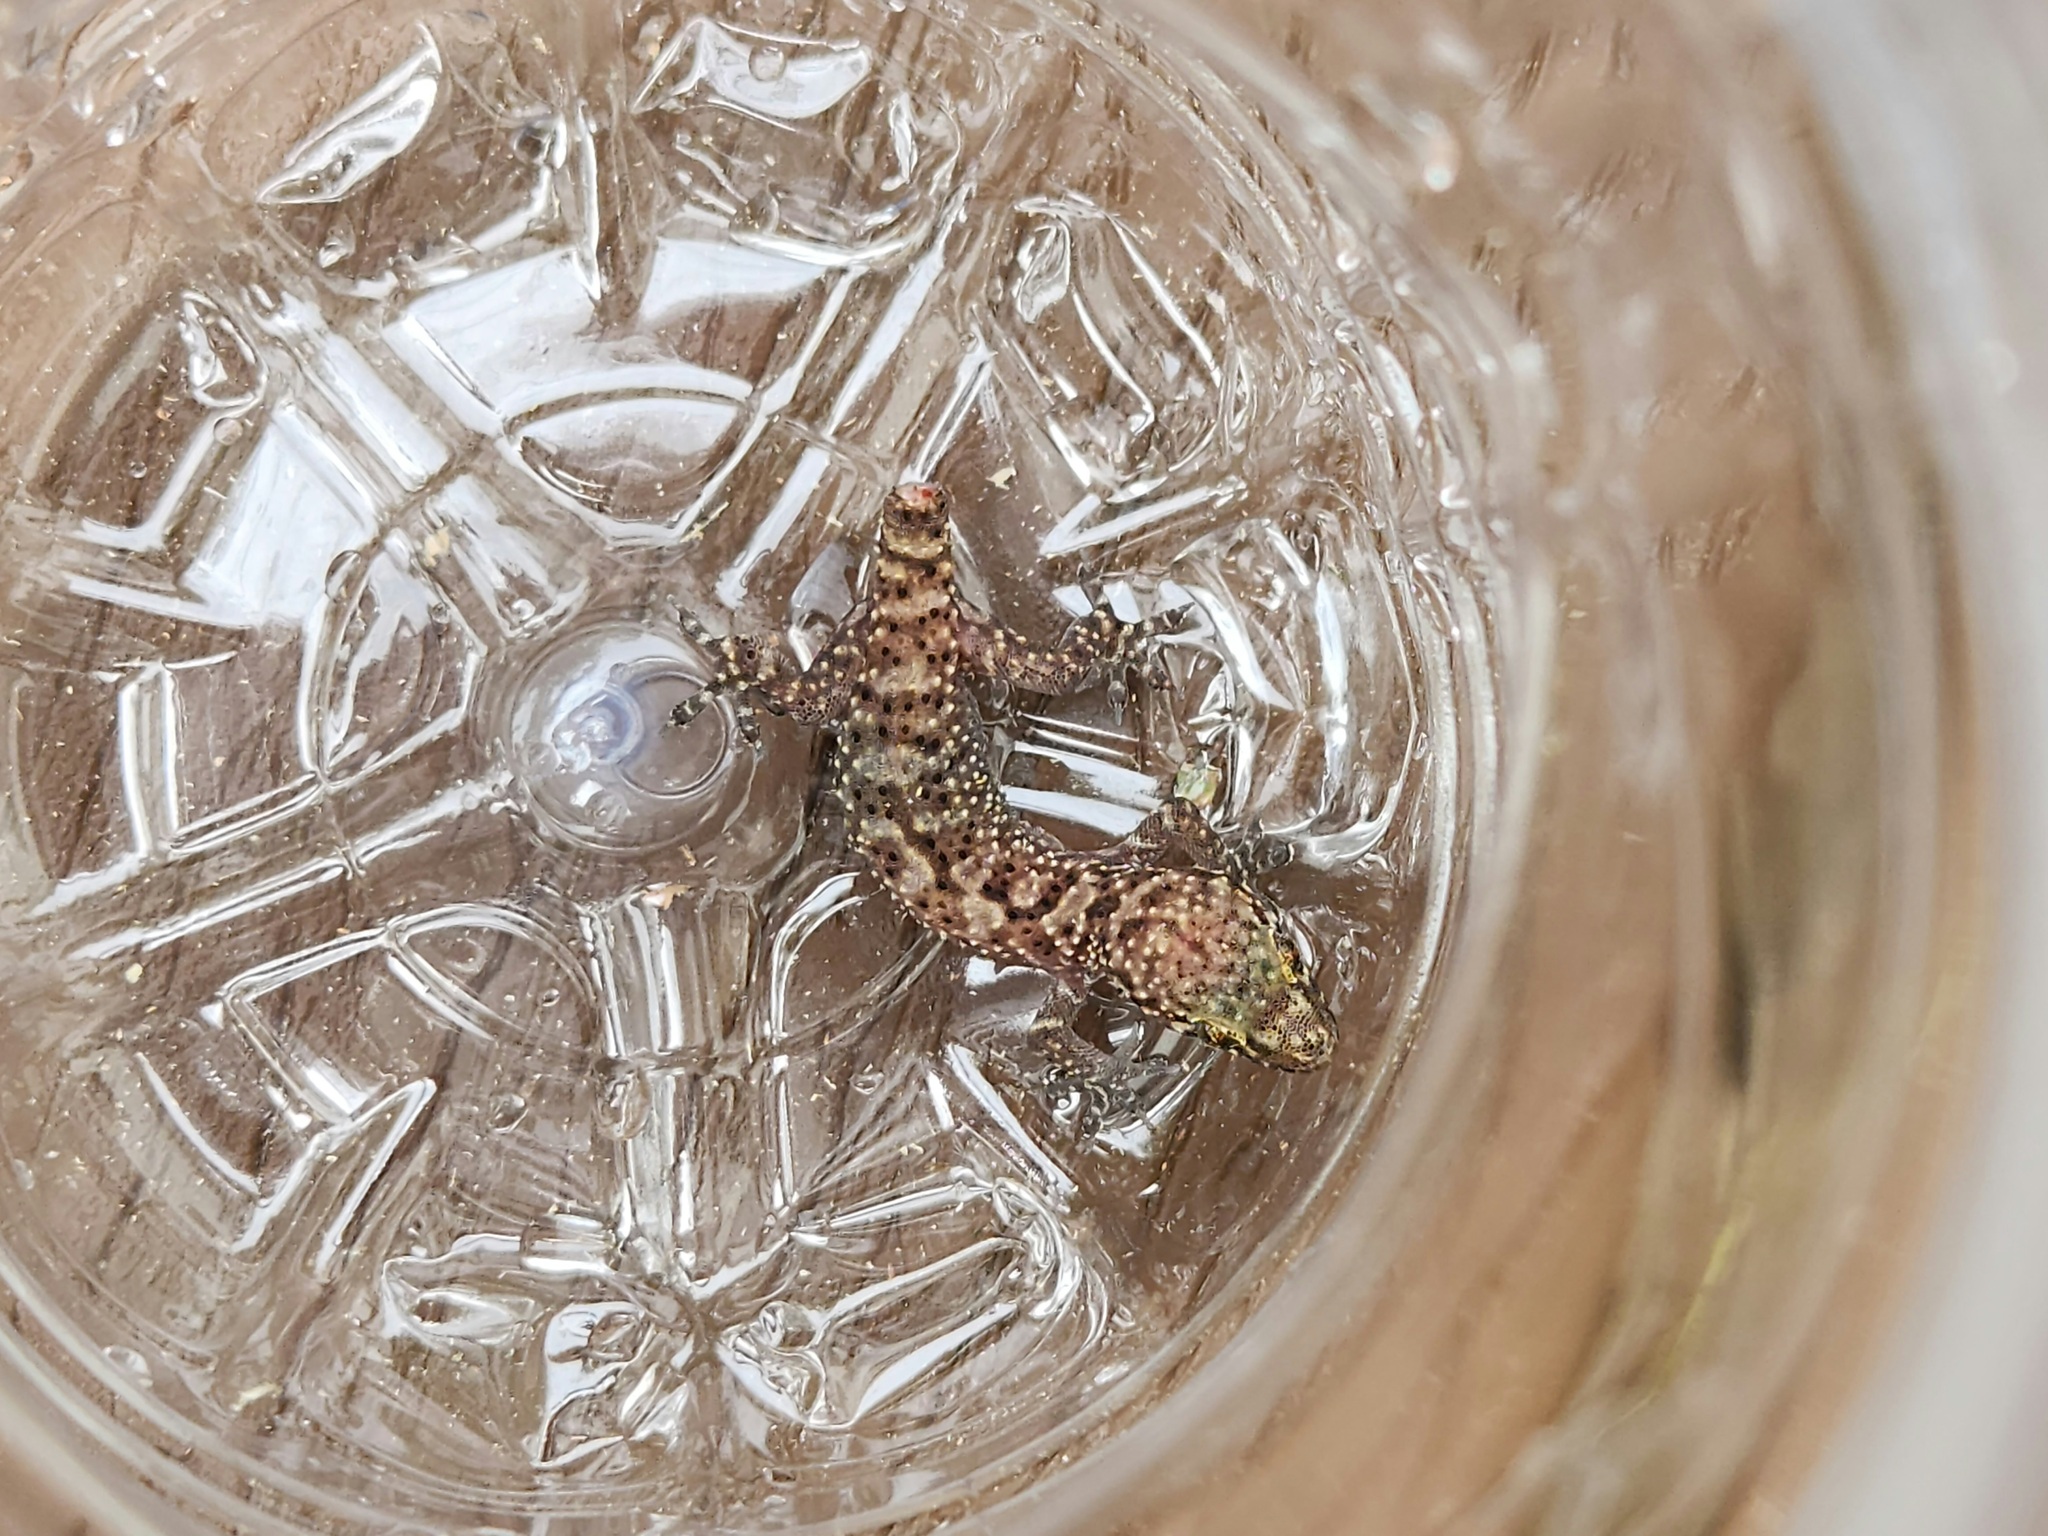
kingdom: Animalia
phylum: Chordata
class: Squamata
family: Gekkonidae
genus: Hemidactylus
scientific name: Hemidactylus turcicus
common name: Turkish gecko
